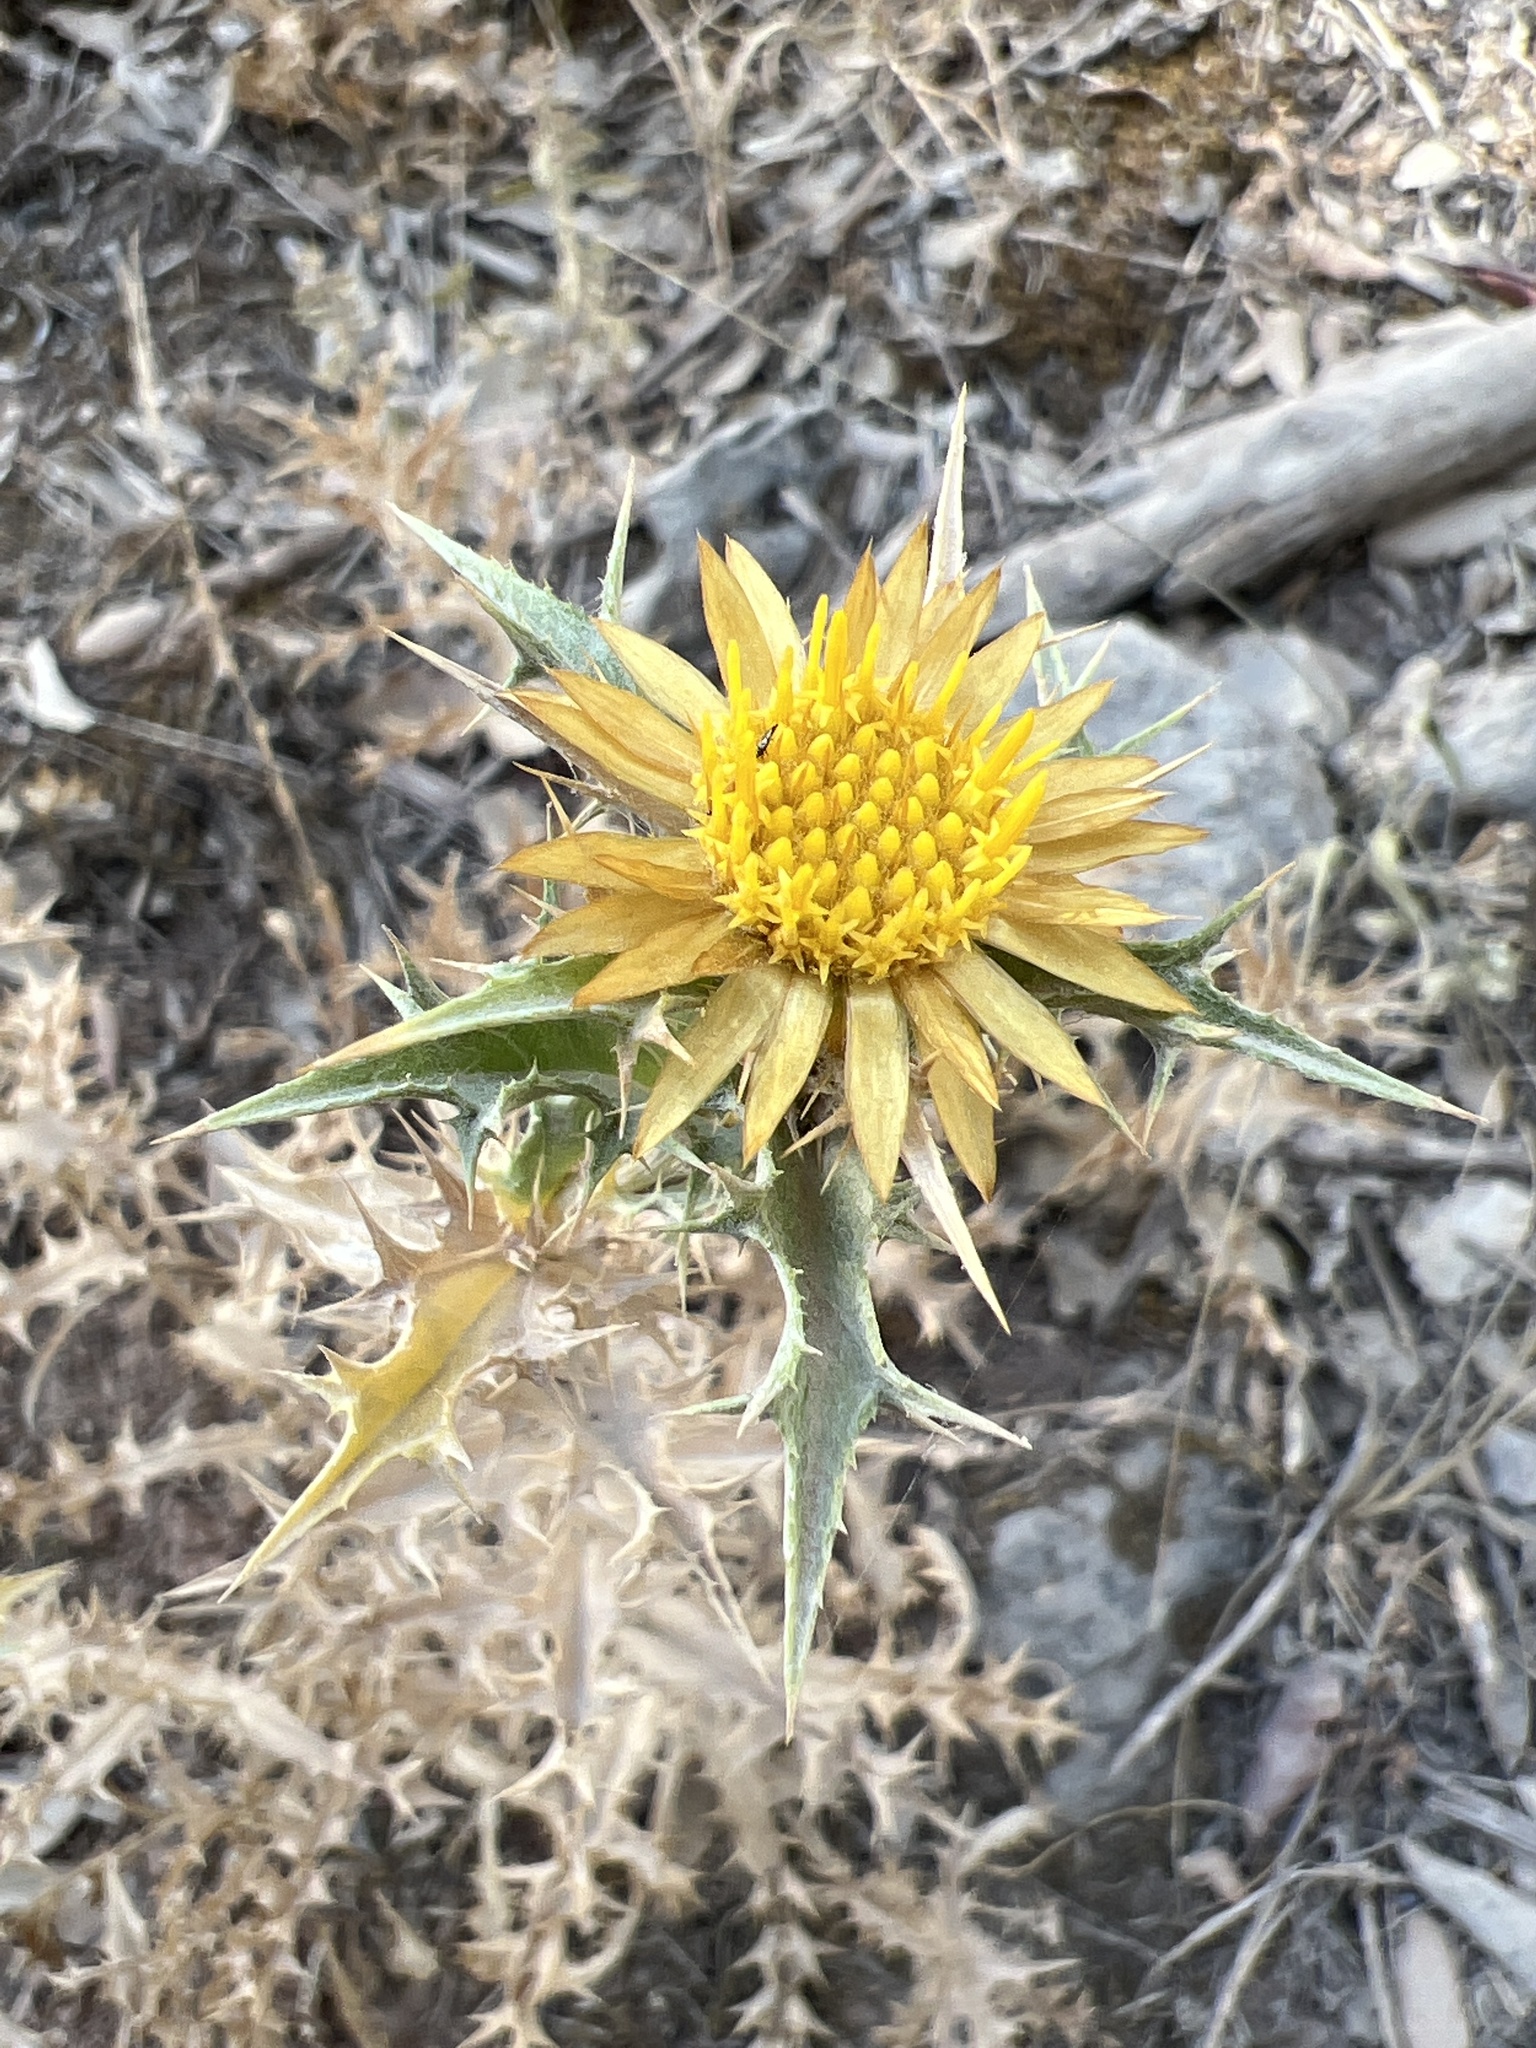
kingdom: Plantae
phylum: Tracheophyta
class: Magnoliopsida
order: Asterales
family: Asteraceae
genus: Carlina
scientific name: Carlina corymbosa
